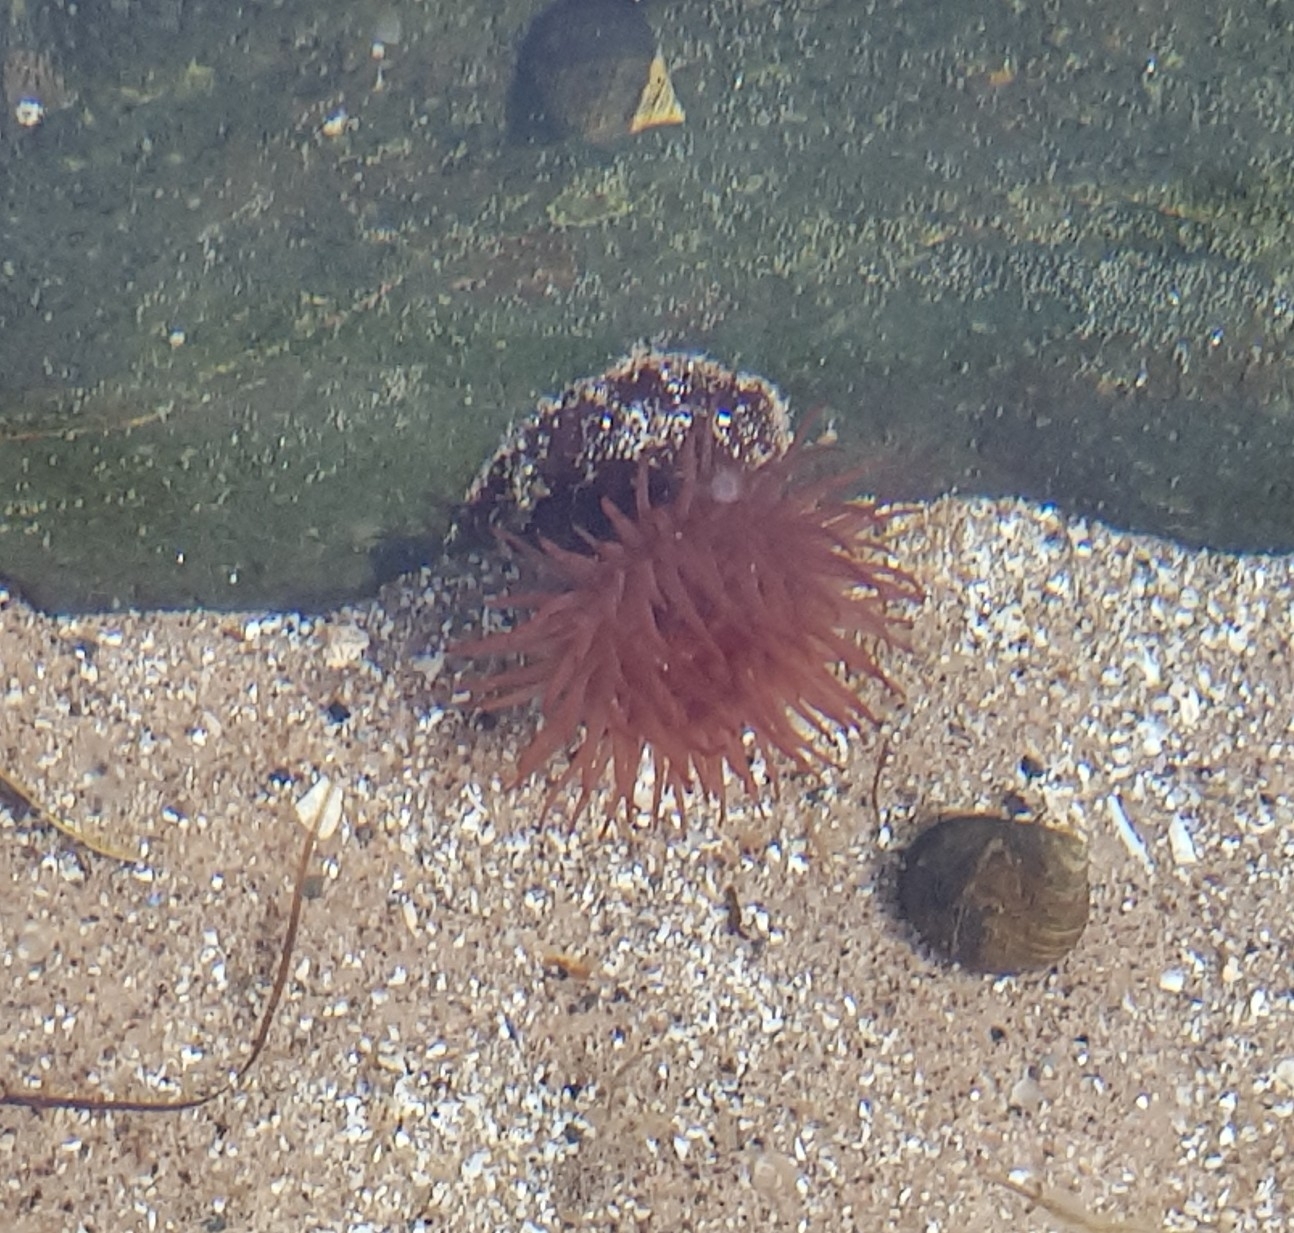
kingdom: Animalia
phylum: Cnidaria
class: Anthozoa
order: Actiniaria
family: Actiniidae
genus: Actinia
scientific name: Actinia equina
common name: Beadlet anemone
